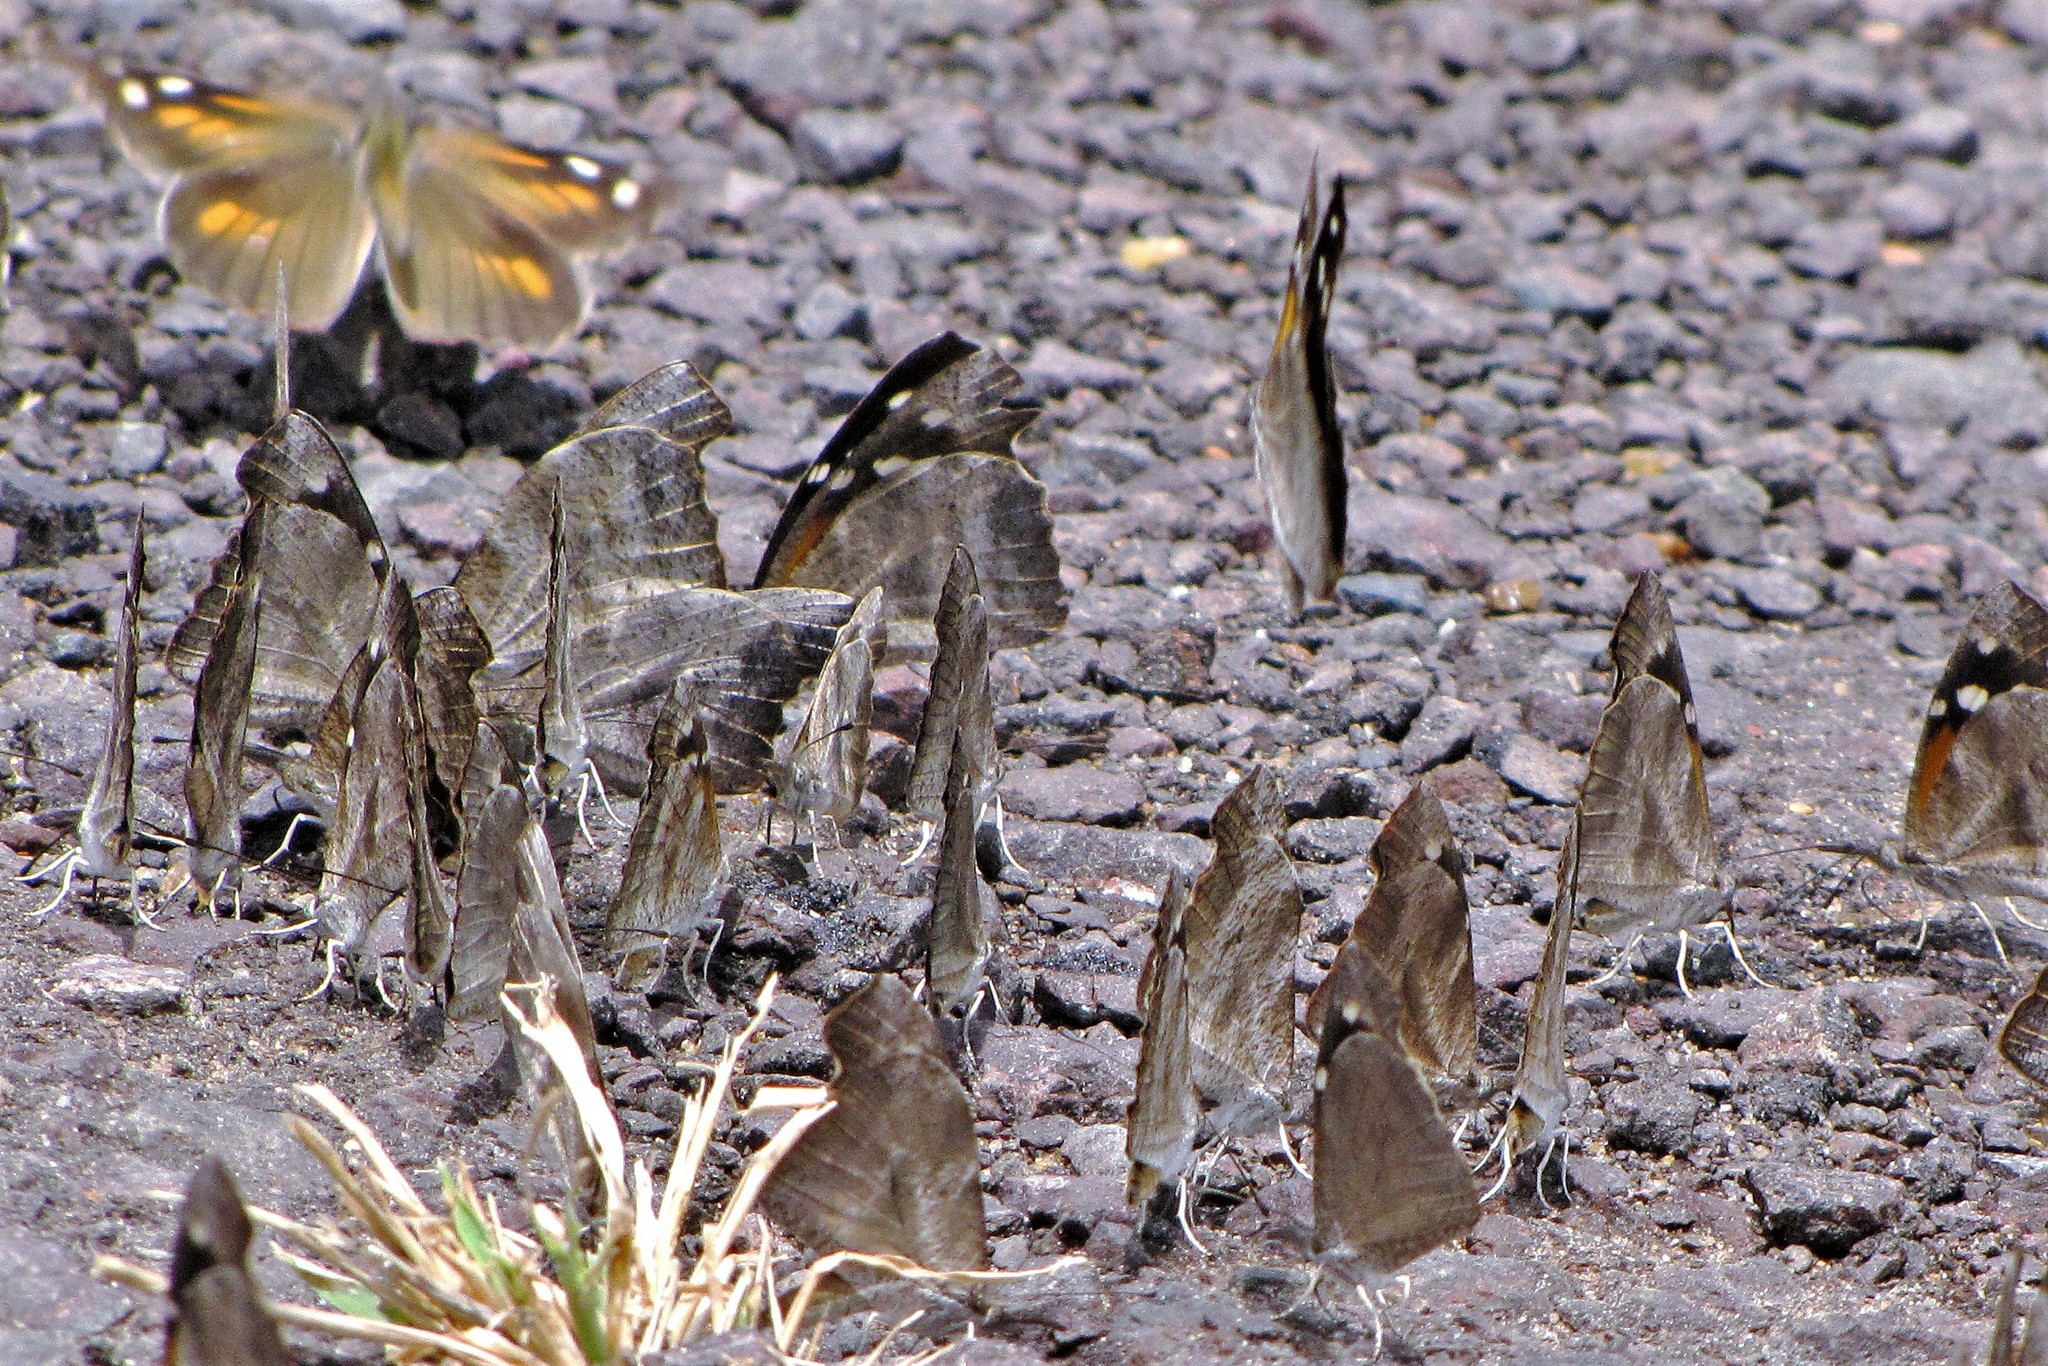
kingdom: Animalia
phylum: Arthropoda
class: Insecta
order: Lepidoptera
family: Nymphalidae
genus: Libytheana
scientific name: Libytheana carinenta
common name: American snout
